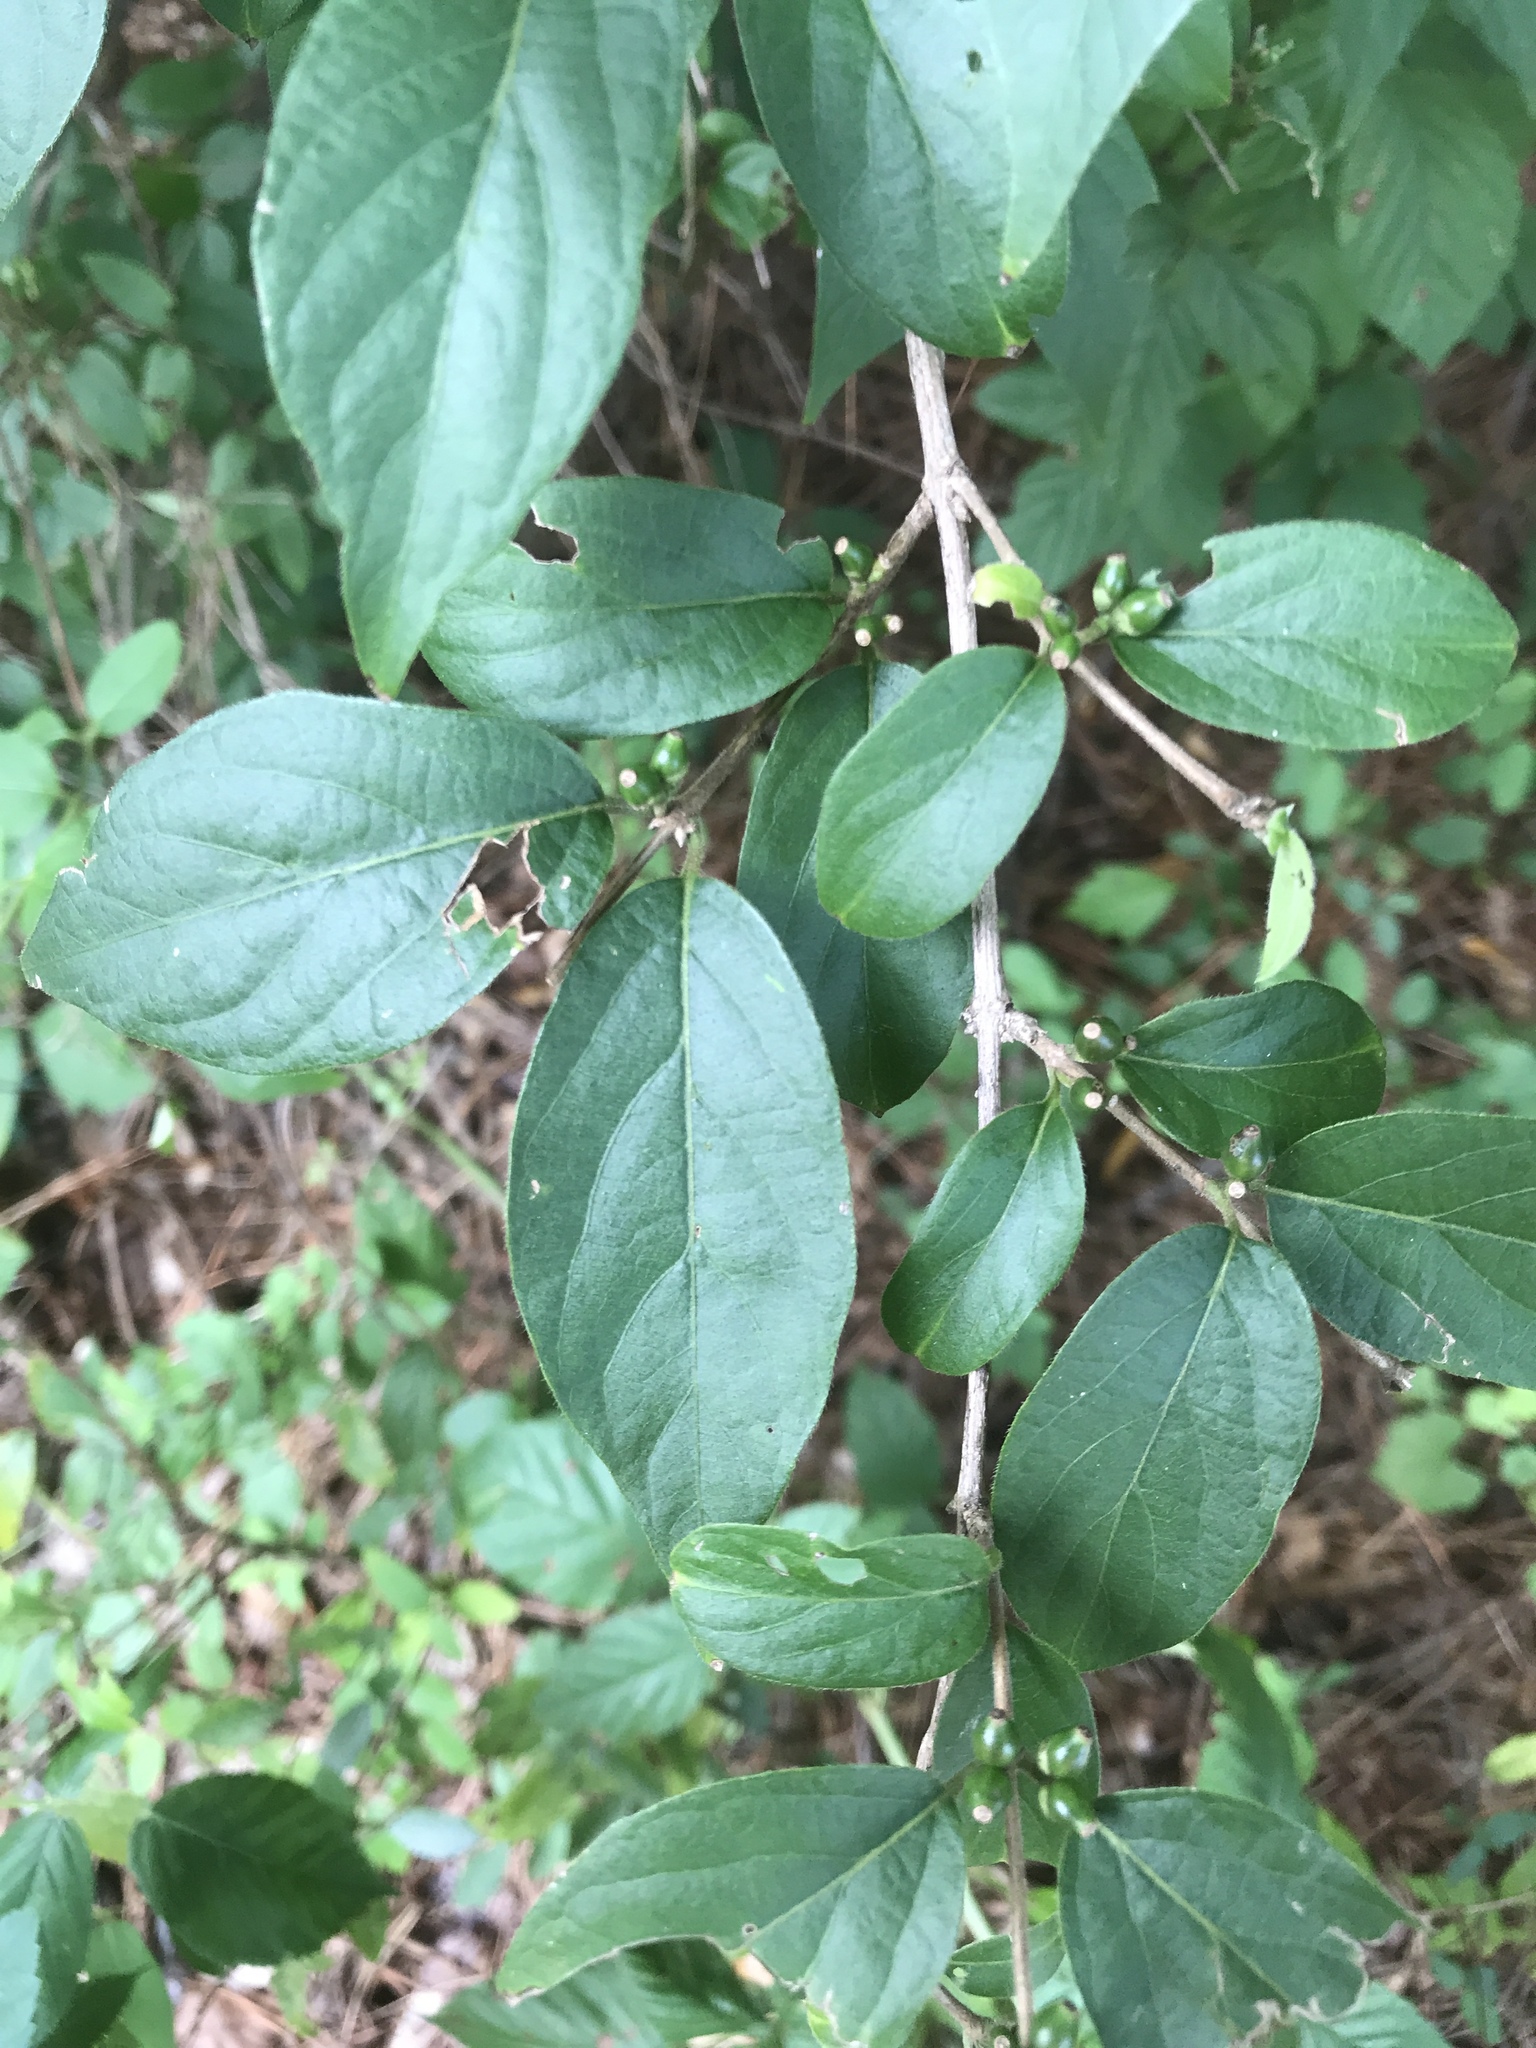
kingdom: Plantae
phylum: Tracheophyta
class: Magnoliopsida
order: Dipsacales
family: Caprifoliaceae
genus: Lonicera
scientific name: Lonicera maackii
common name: Amur honeysuckle
